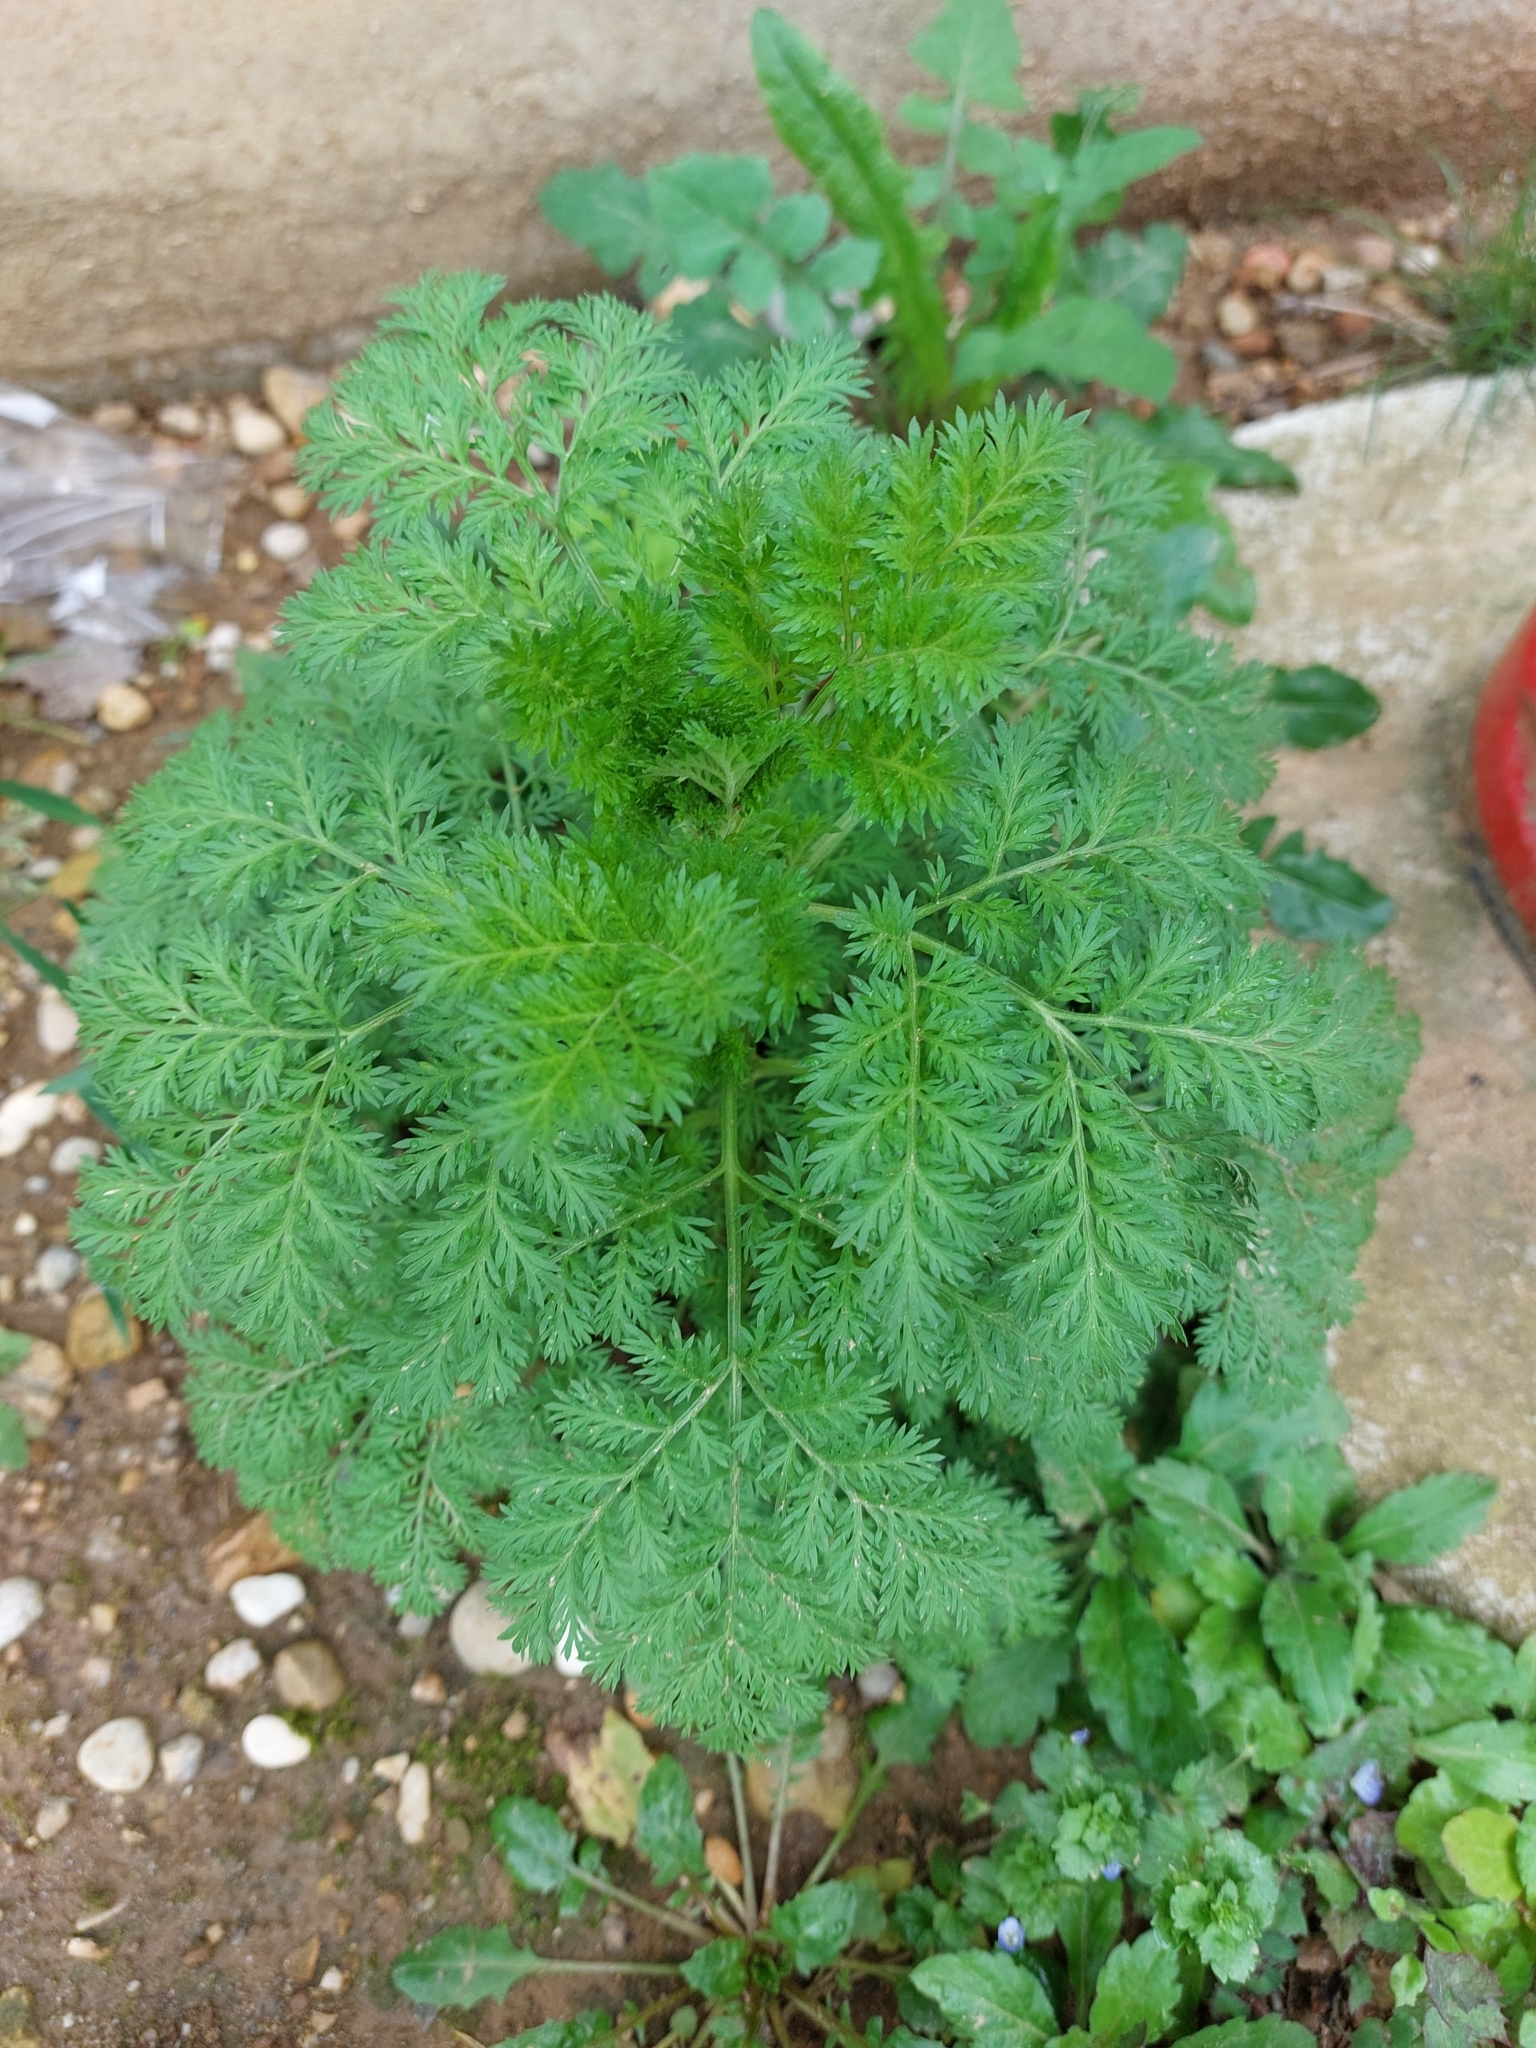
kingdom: Plantae
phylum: Tracheophyta
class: Magnoliopsida
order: Asterales
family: Asteraceae
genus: Artemisia
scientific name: Artemisia annua
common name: Sweet sagewort
